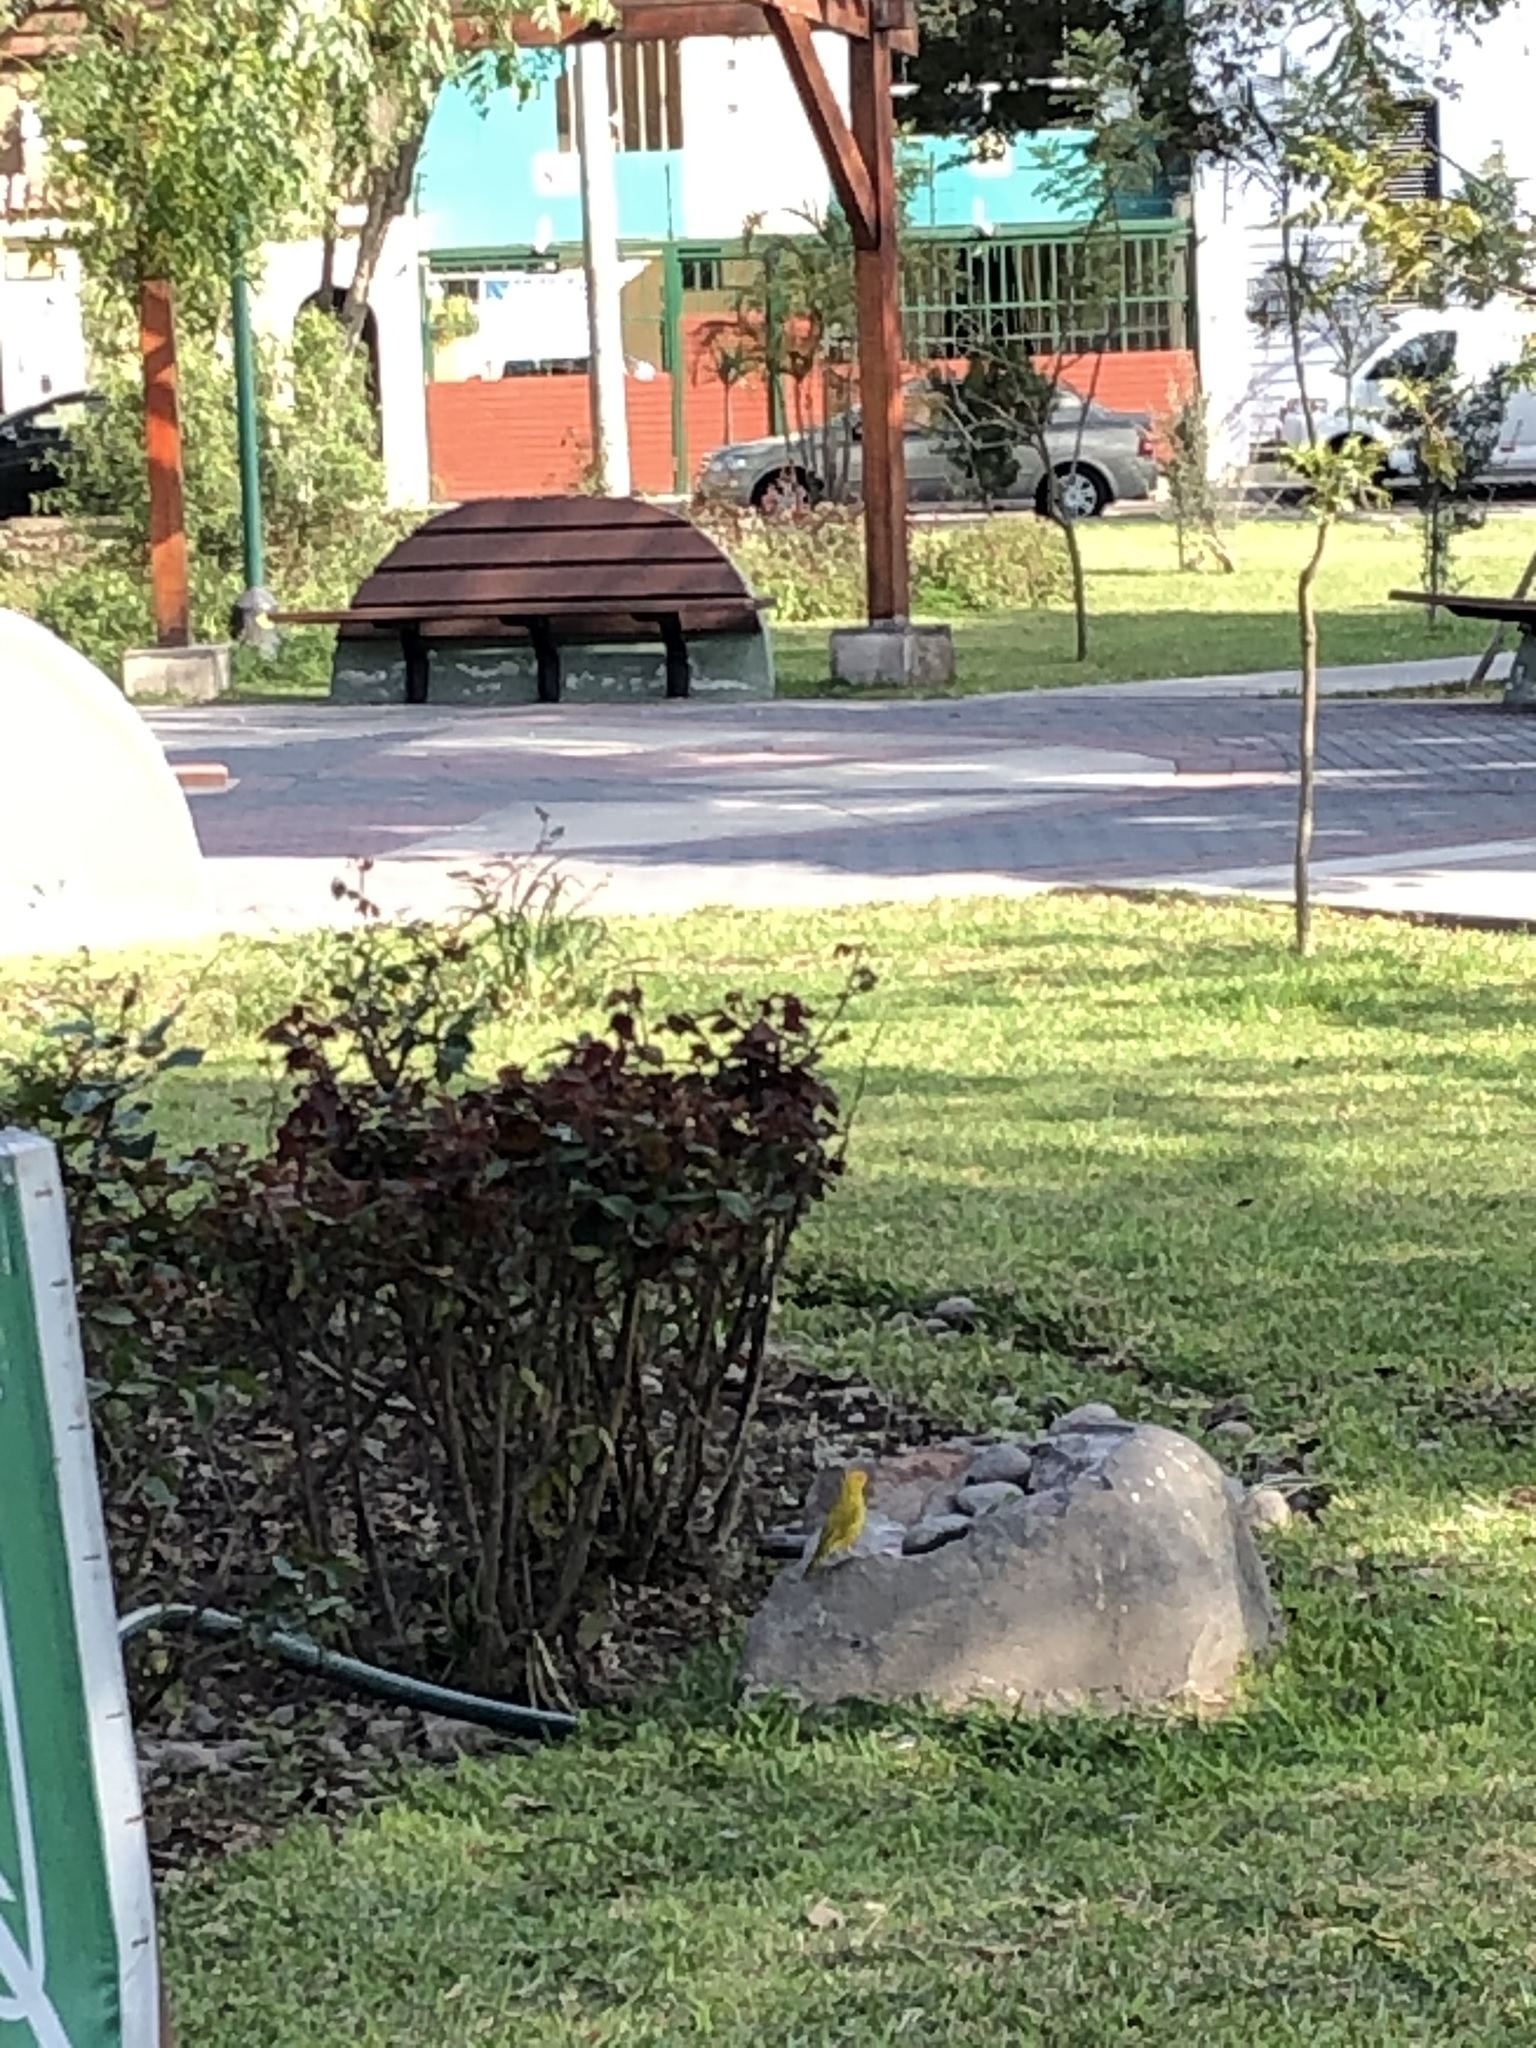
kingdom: Animalia
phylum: Chordata
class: Aves
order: Passeriformes
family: Thraupidae
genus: Sicalis
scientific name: Sicalis flaveola
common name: Saffron finch
